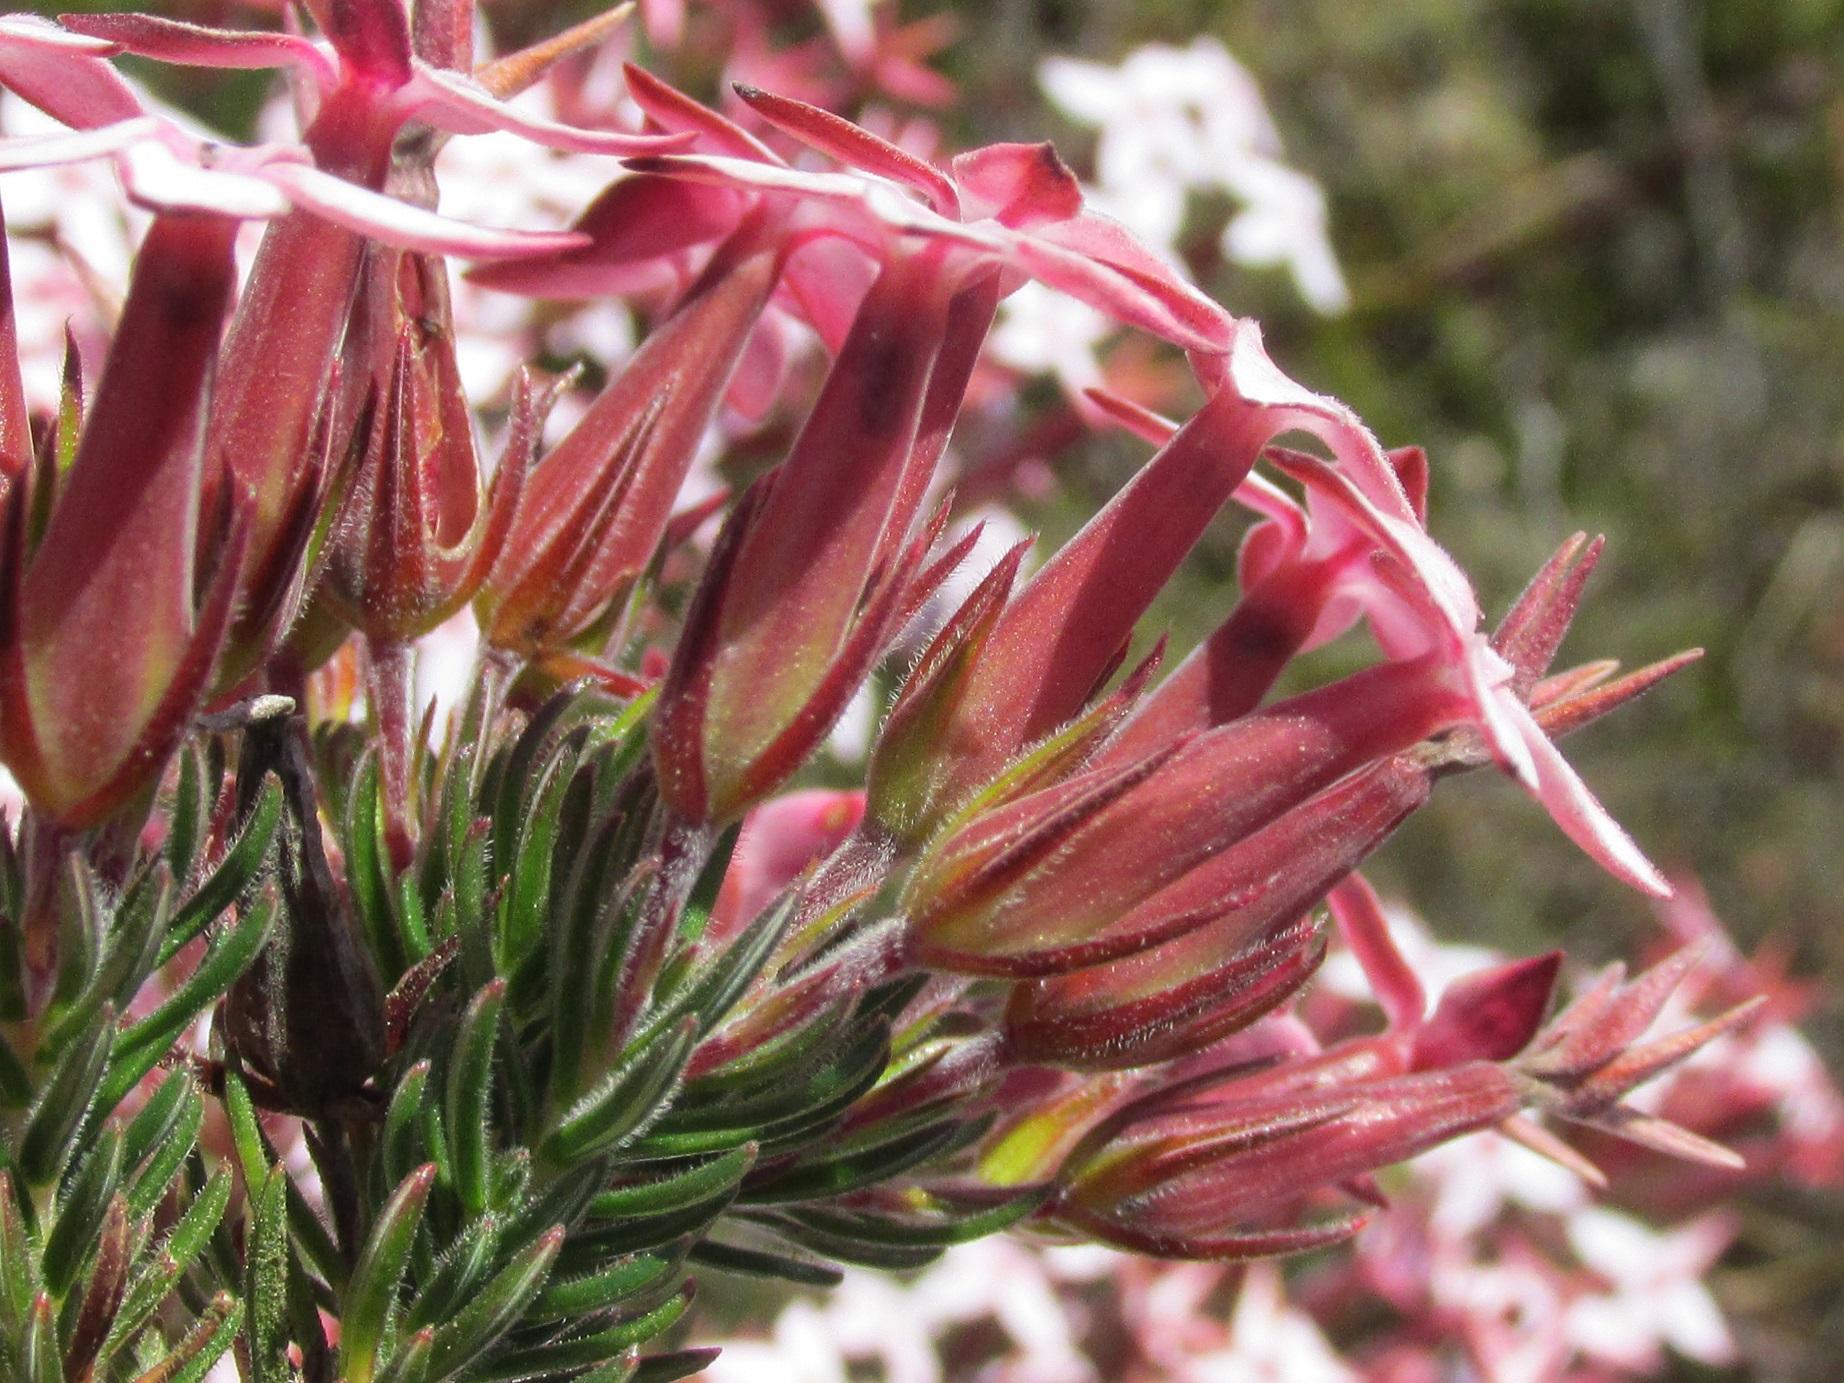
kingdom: Plantae
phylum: Tracheophyta
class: Magnoliopsida
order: Ericales
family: Ericaceae
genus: Erica
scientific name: Erica fastigiata
